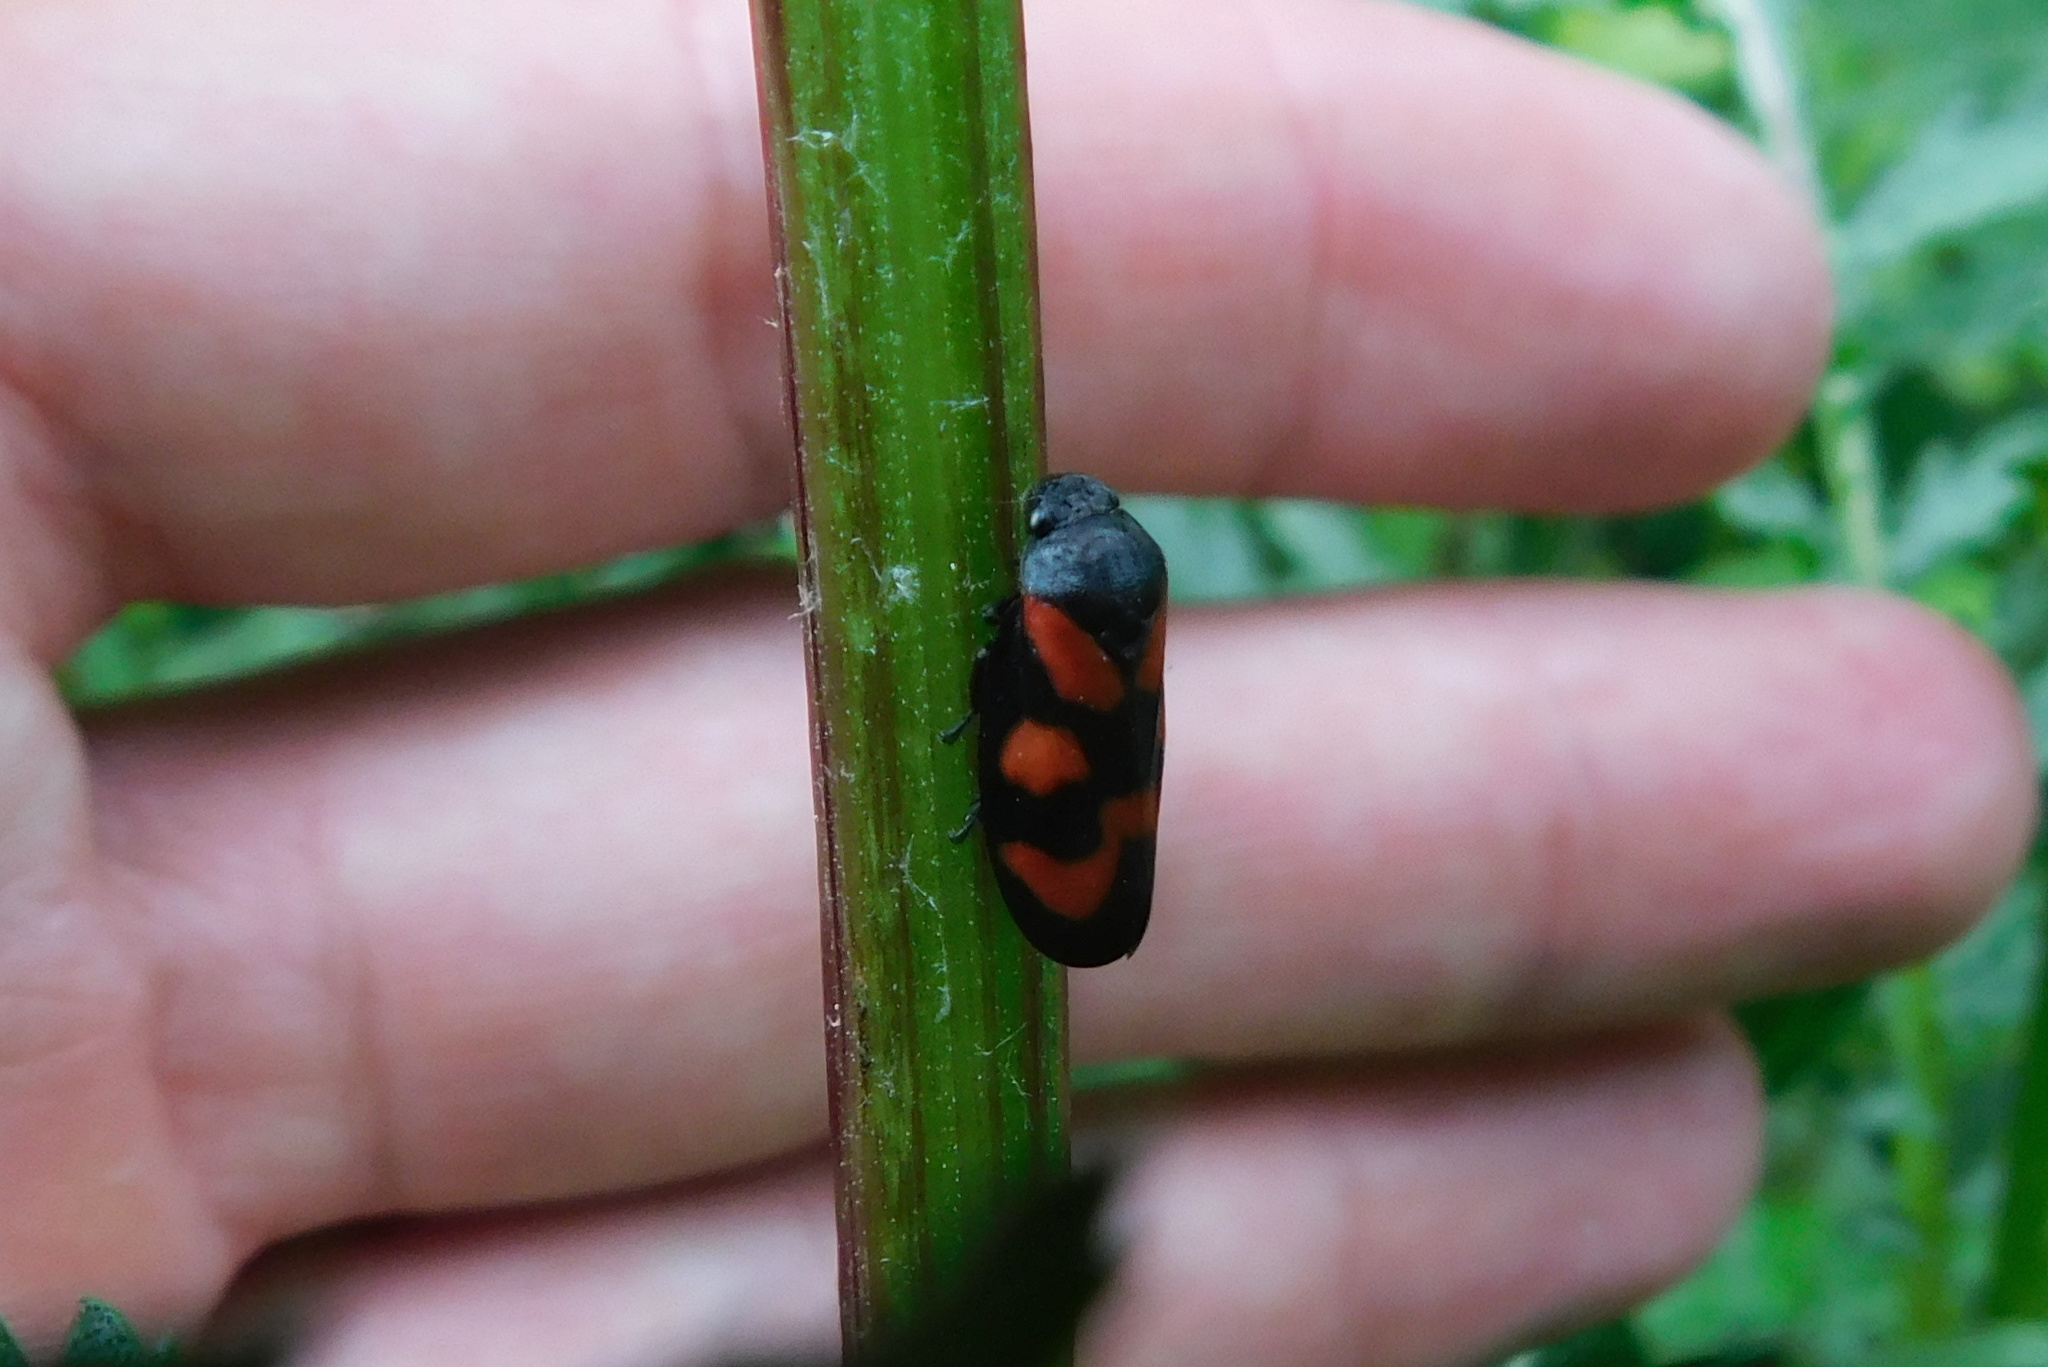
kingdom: Animalia
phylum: Arthropoda
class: Insecta
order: Hemiptera
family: Cercopidae
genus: Cercopis
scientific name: Cercopis vulnerata
